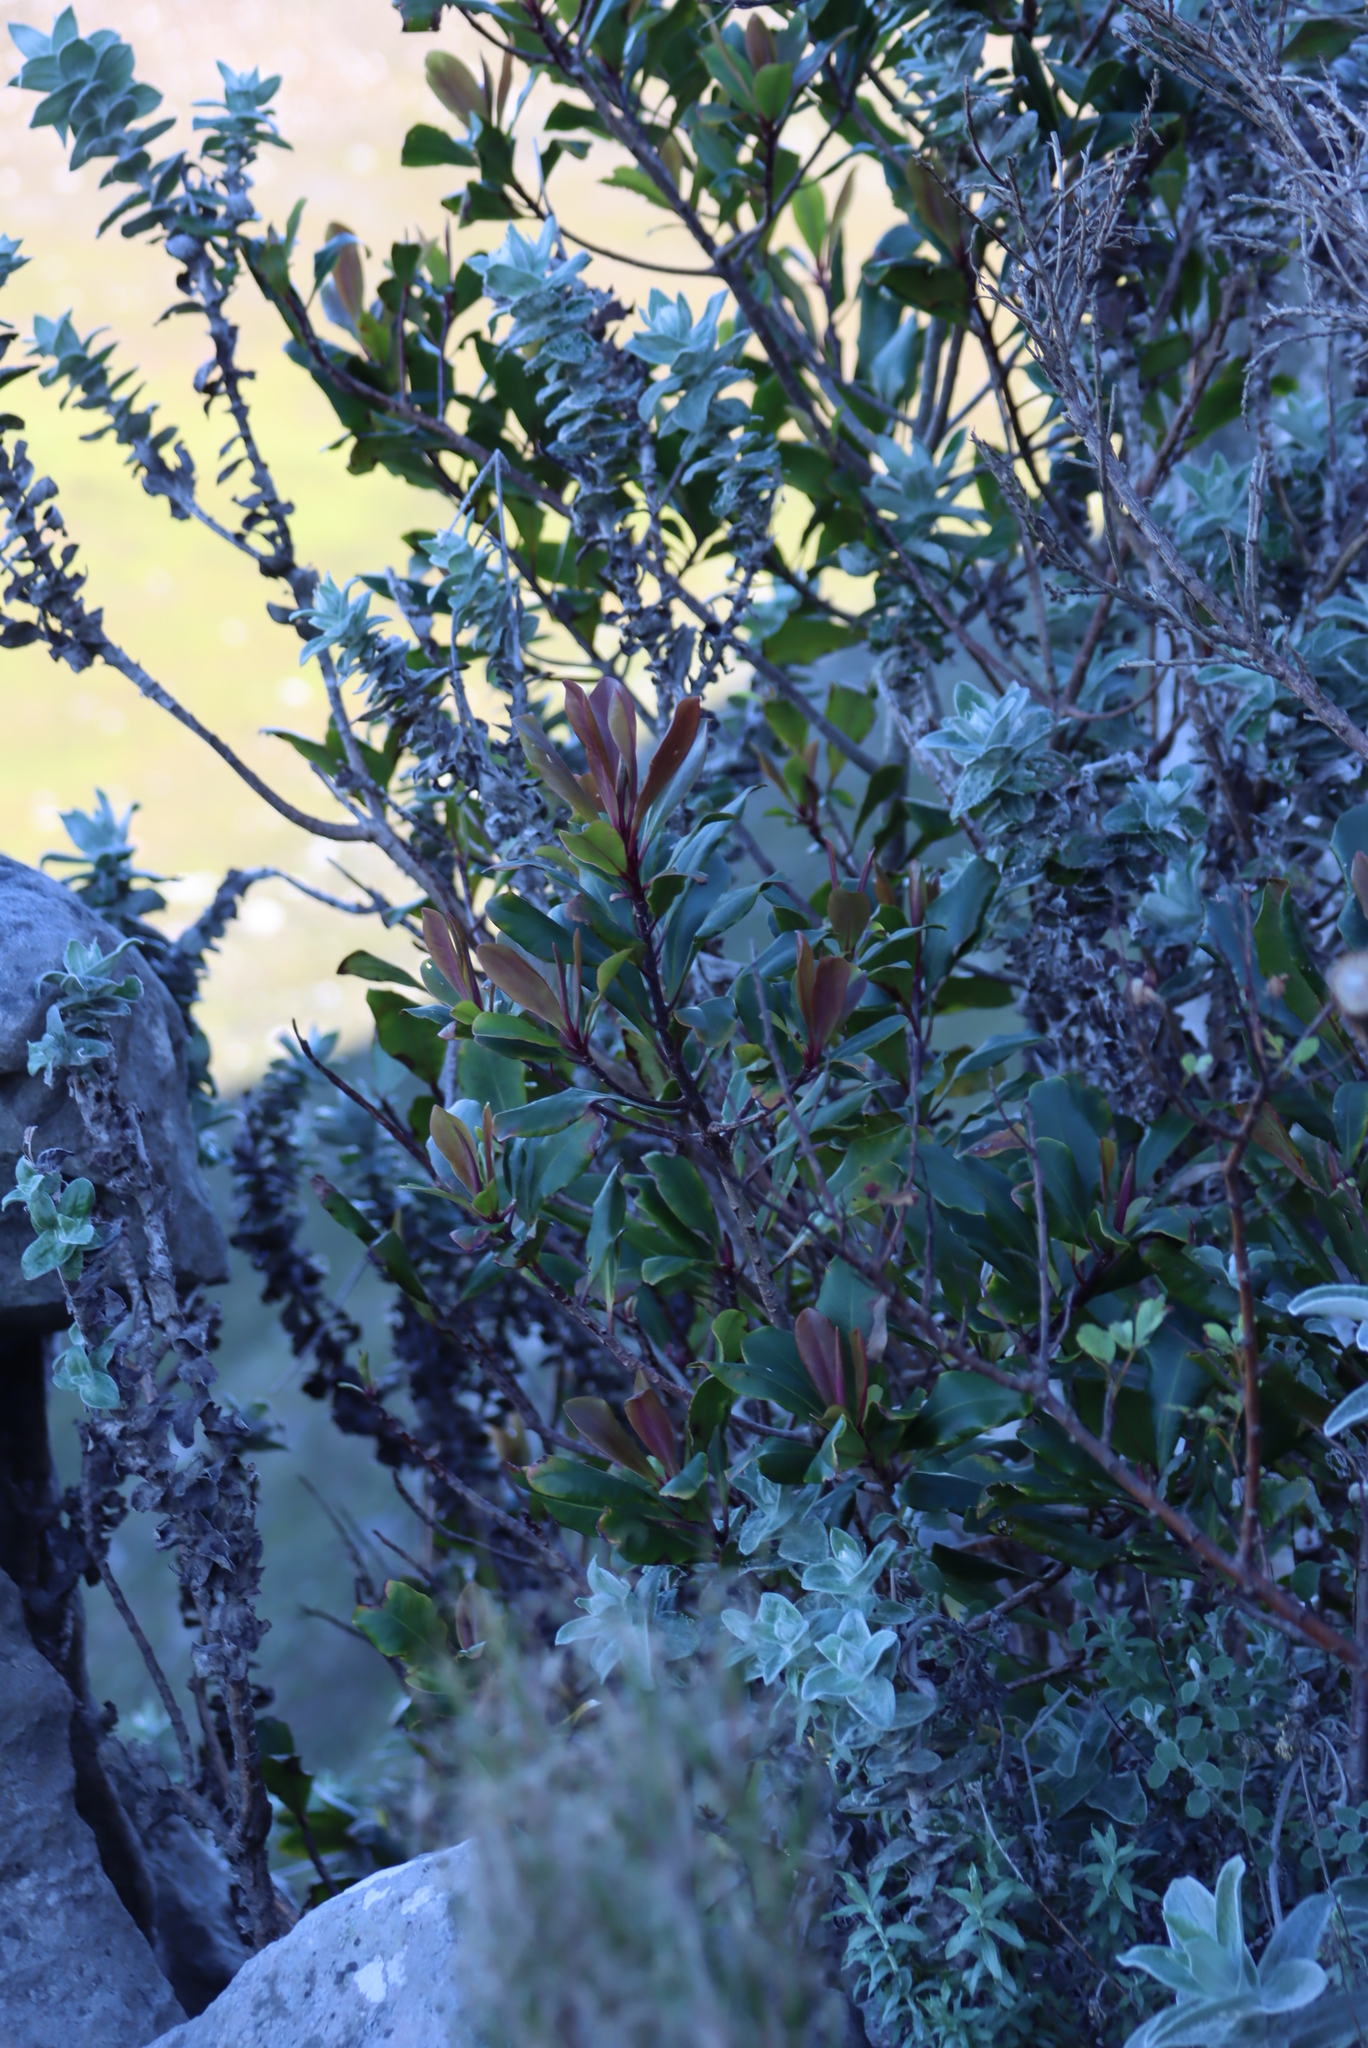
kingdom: Plantae
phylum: Tracheophyta
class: Magnoliopsida
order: Ericales
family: Primulaceae
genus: Myrsine
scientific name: Myrsine melanophloeos
